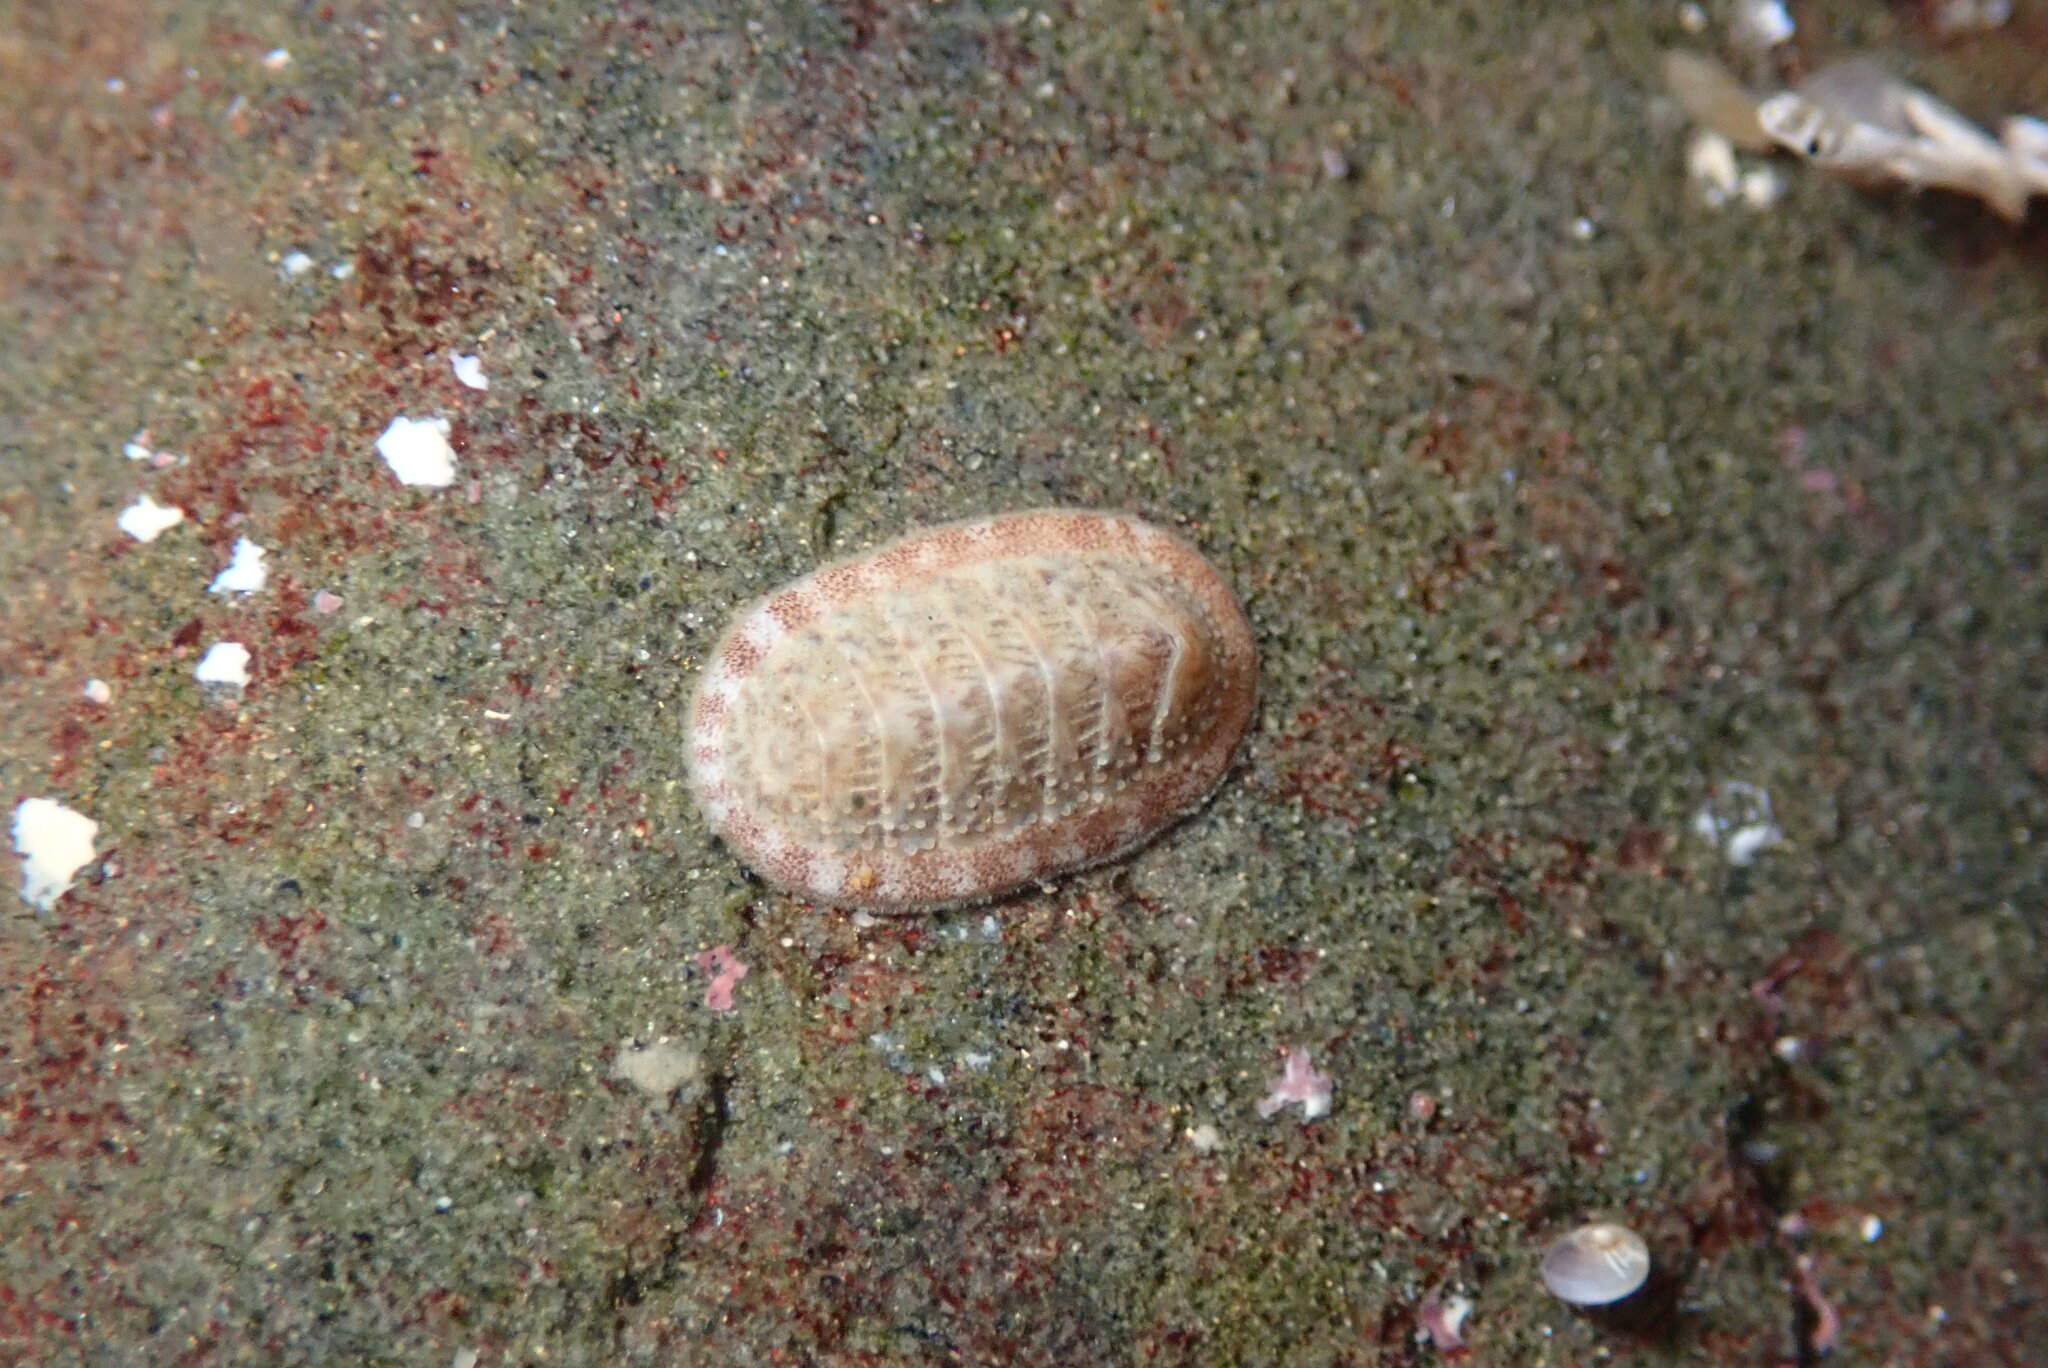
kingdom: Animalia
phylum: Mollusca
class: Polyplacophora
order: Chitonida
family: Ischnochitonidae
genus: Lepidozona
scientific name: Lepidozona cooperi
